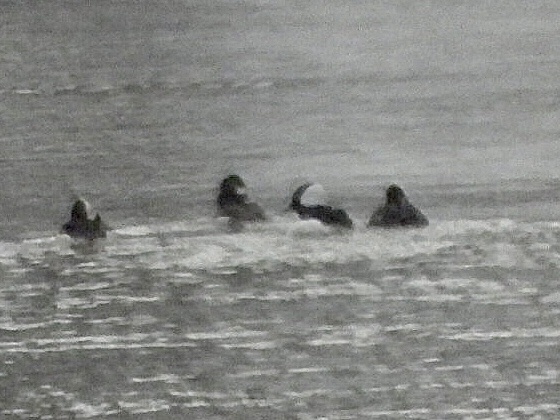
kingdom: Animalia
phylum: Chordata
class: Aves
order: Anseriformes
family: Anatidae
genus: Bucephala
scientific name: Bucephala albeola
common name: Bufflehead
